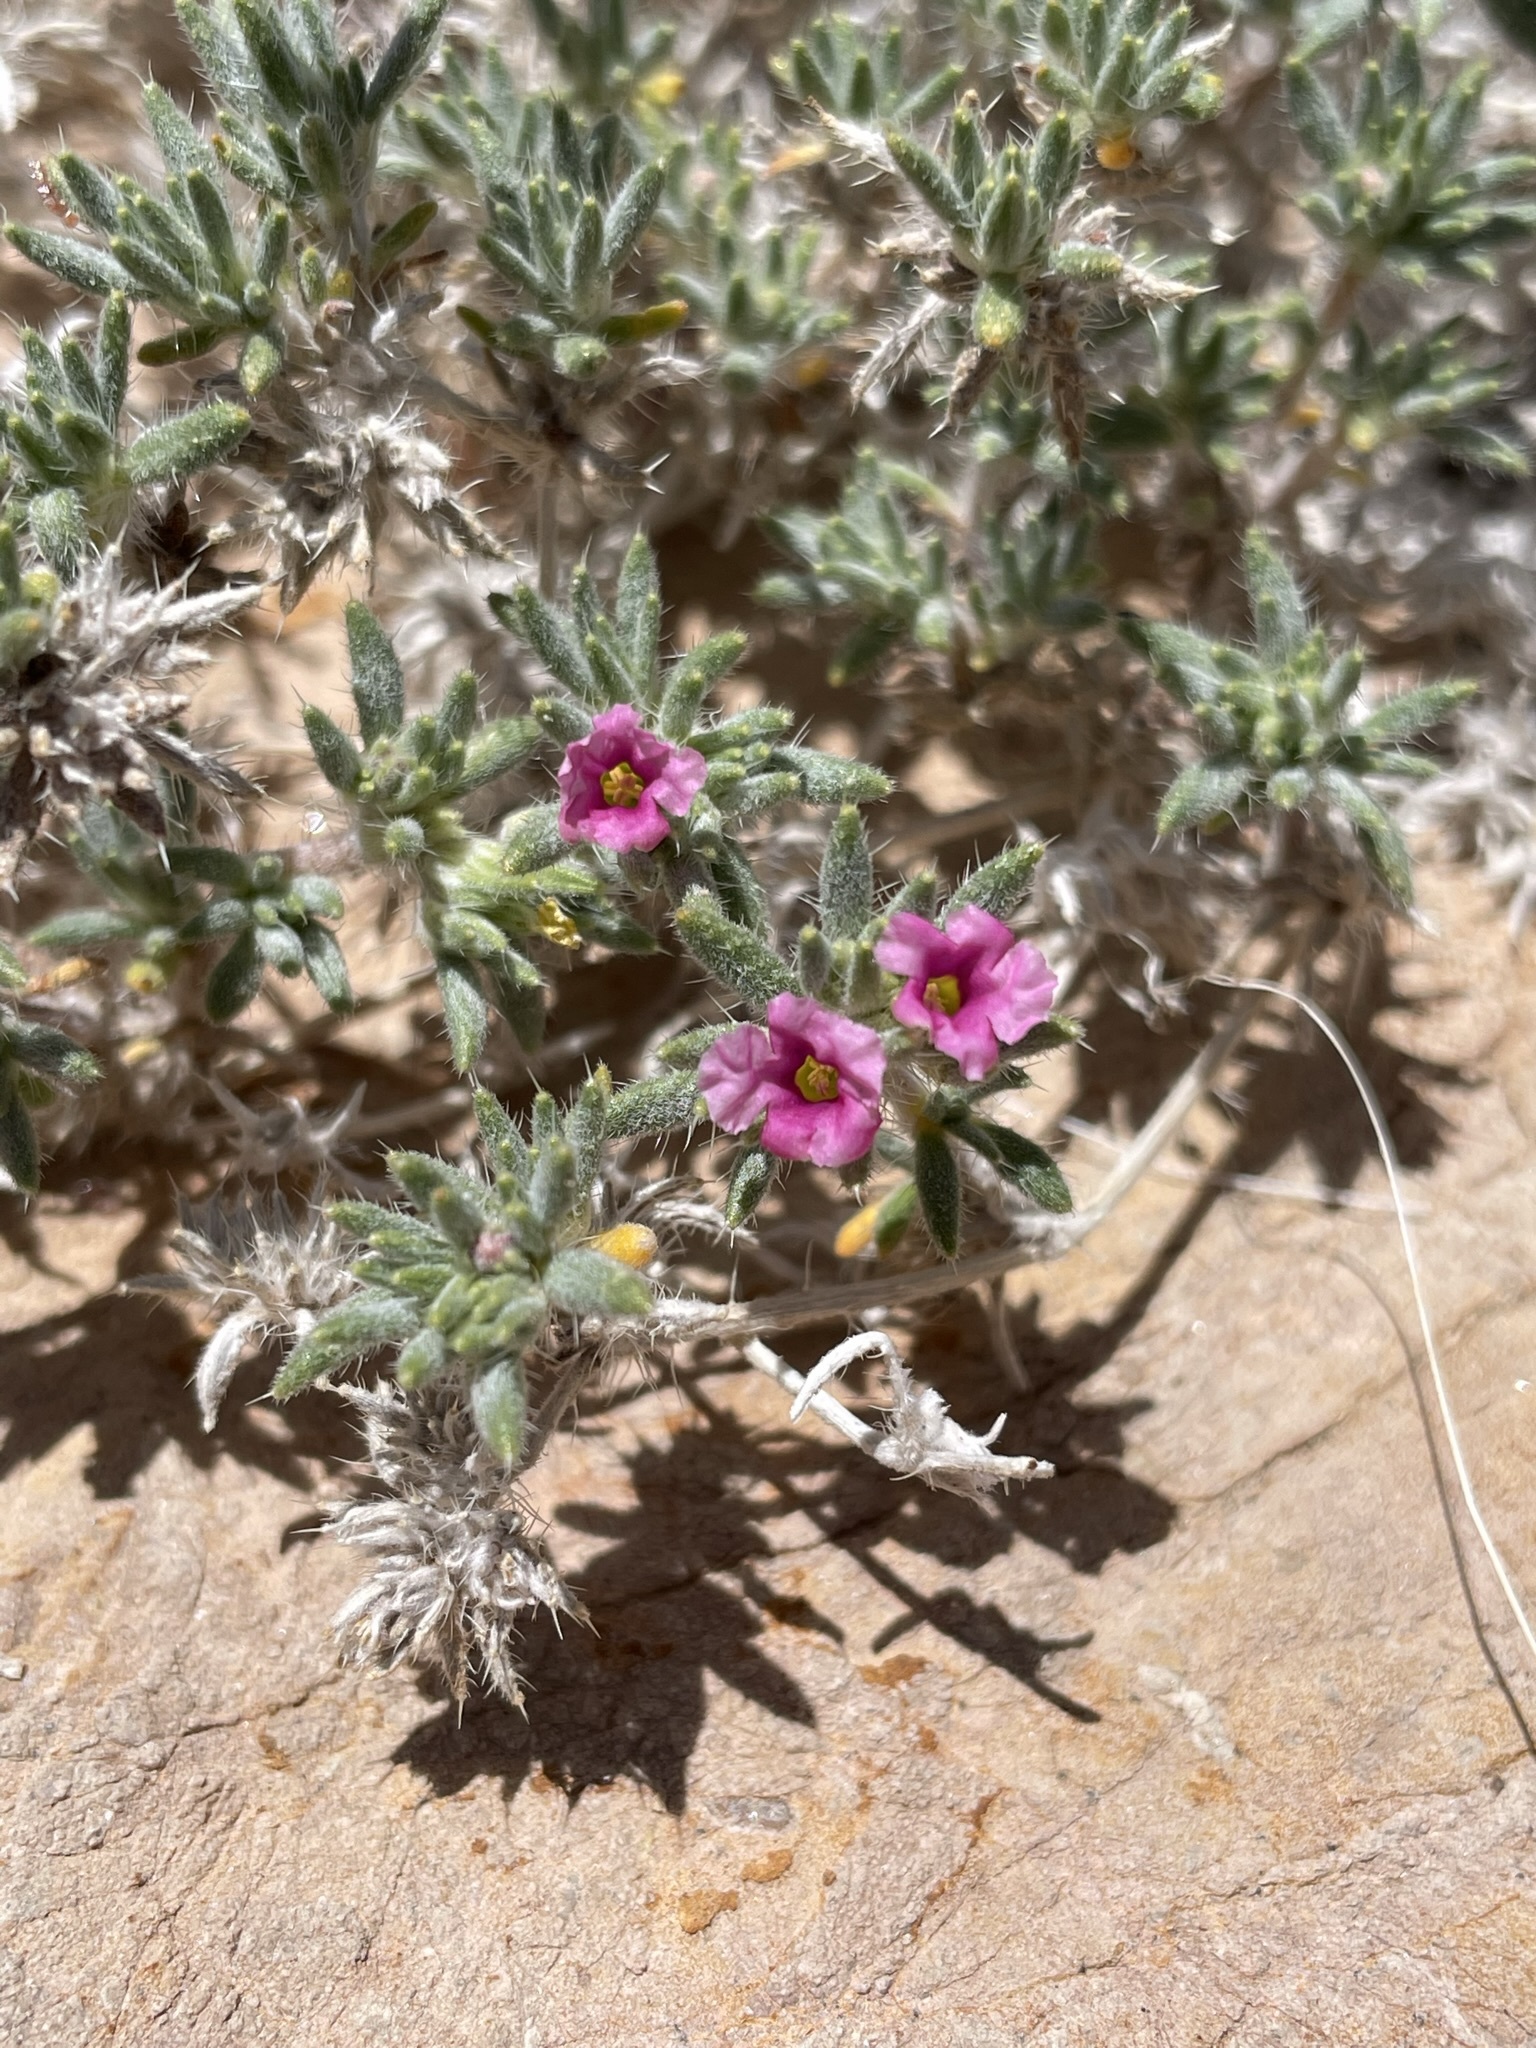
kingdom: Plantae
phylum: Tracheophyta
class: Magnoliopsida
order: Boraginales
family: Ehretiaceae
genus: Tiquilia
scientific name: Tiquilia latior
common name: Matted tiquilia
